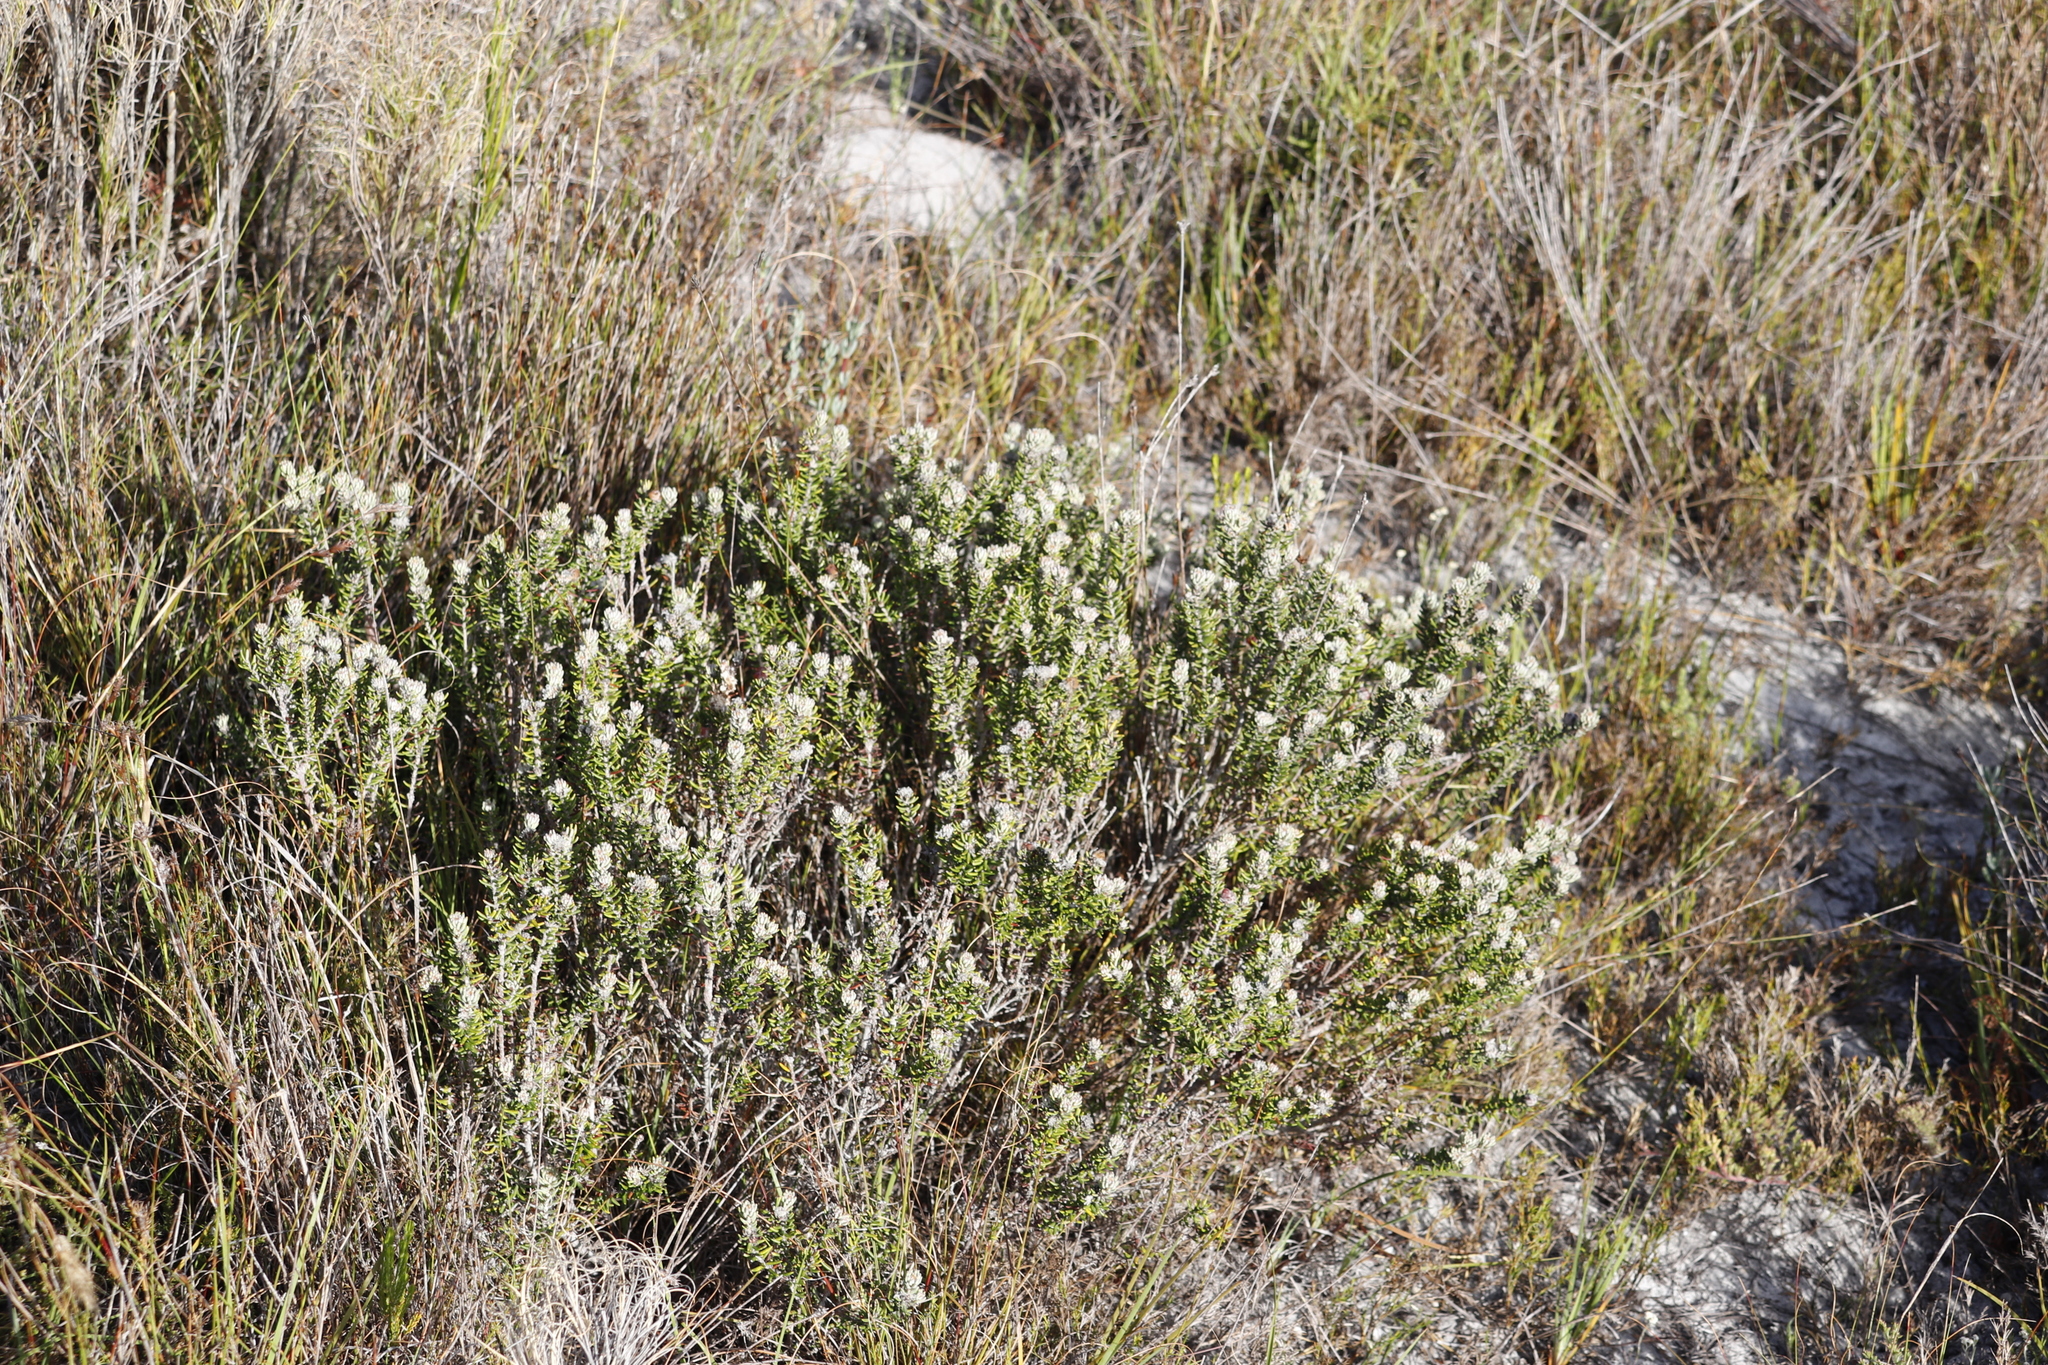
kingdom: Plantae
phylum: Tracheophyta
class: Magnoliopsida
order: Rosales
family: Rhamnaceae
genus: Trichocephalus
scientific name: Trichocephalus stipularis
